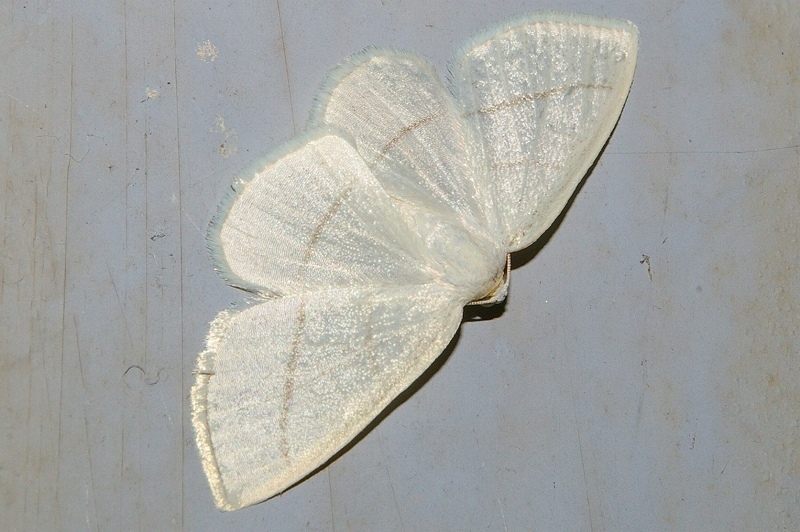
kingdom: Animalia
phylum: Arthropoda
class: Insecta
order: Lepidoptera
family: Geometridae
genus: Parabapta
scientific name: Parabapta clarissa
